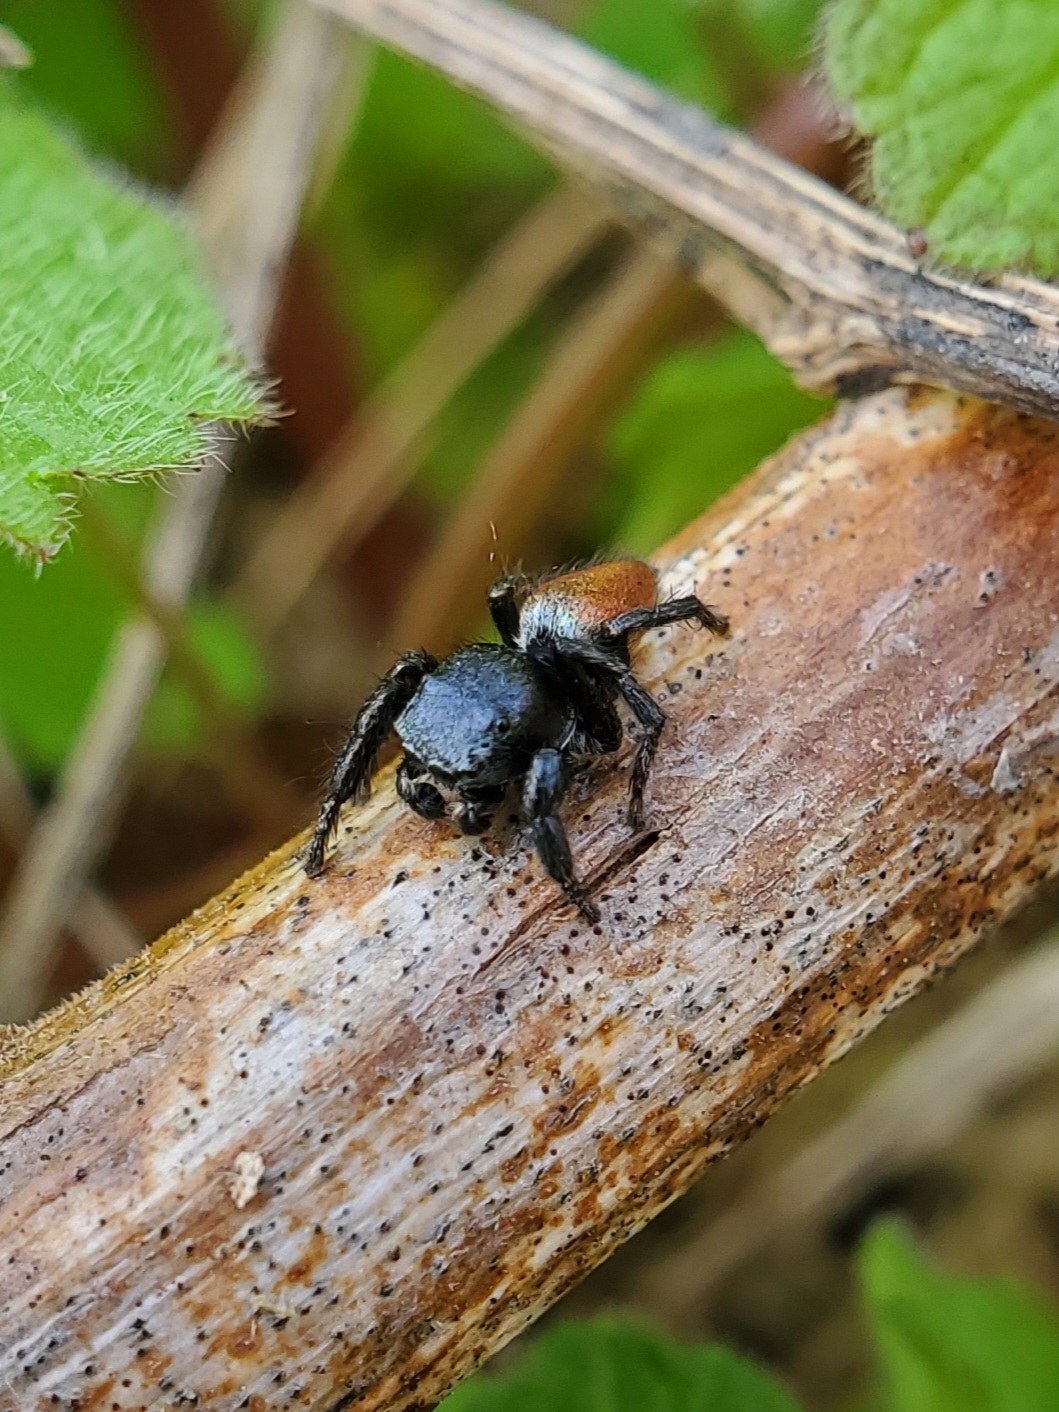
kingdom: Animalia
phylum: Arthropoda
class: Arachnida
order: Araneae
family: Salticidae
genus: Habronattus
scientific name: Habronattus decorus
